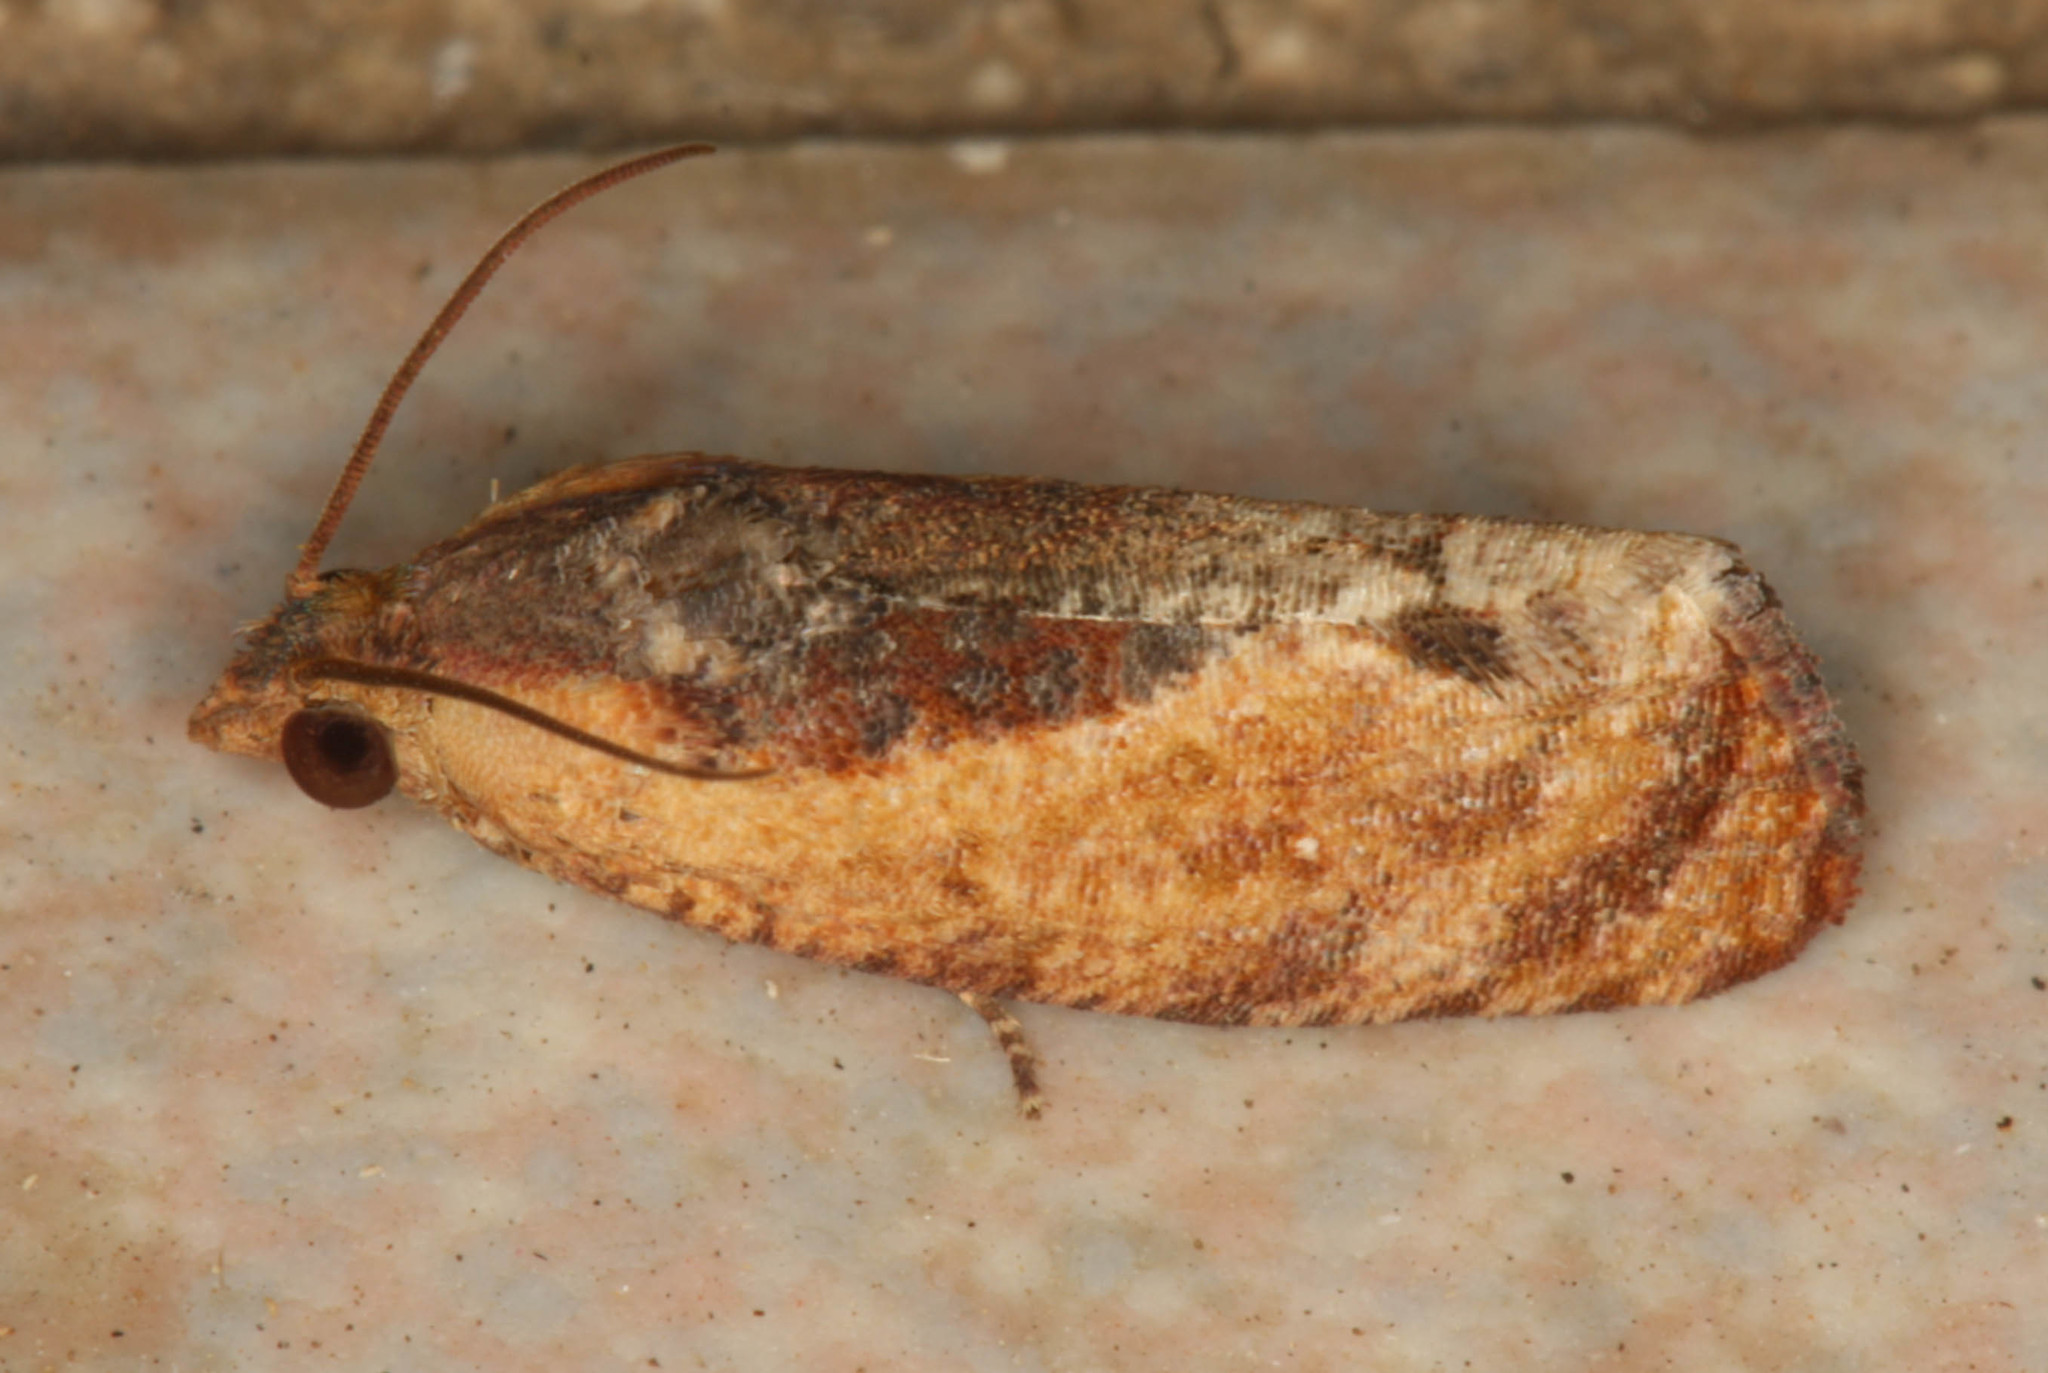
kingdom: Animalia
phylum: Arthropoda
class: Insecta
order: Lepidoptera
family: Tortricidae
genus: Cryptophlebia
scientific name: Cryptophlebia ombrodelta
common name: Litchi fruit moth
